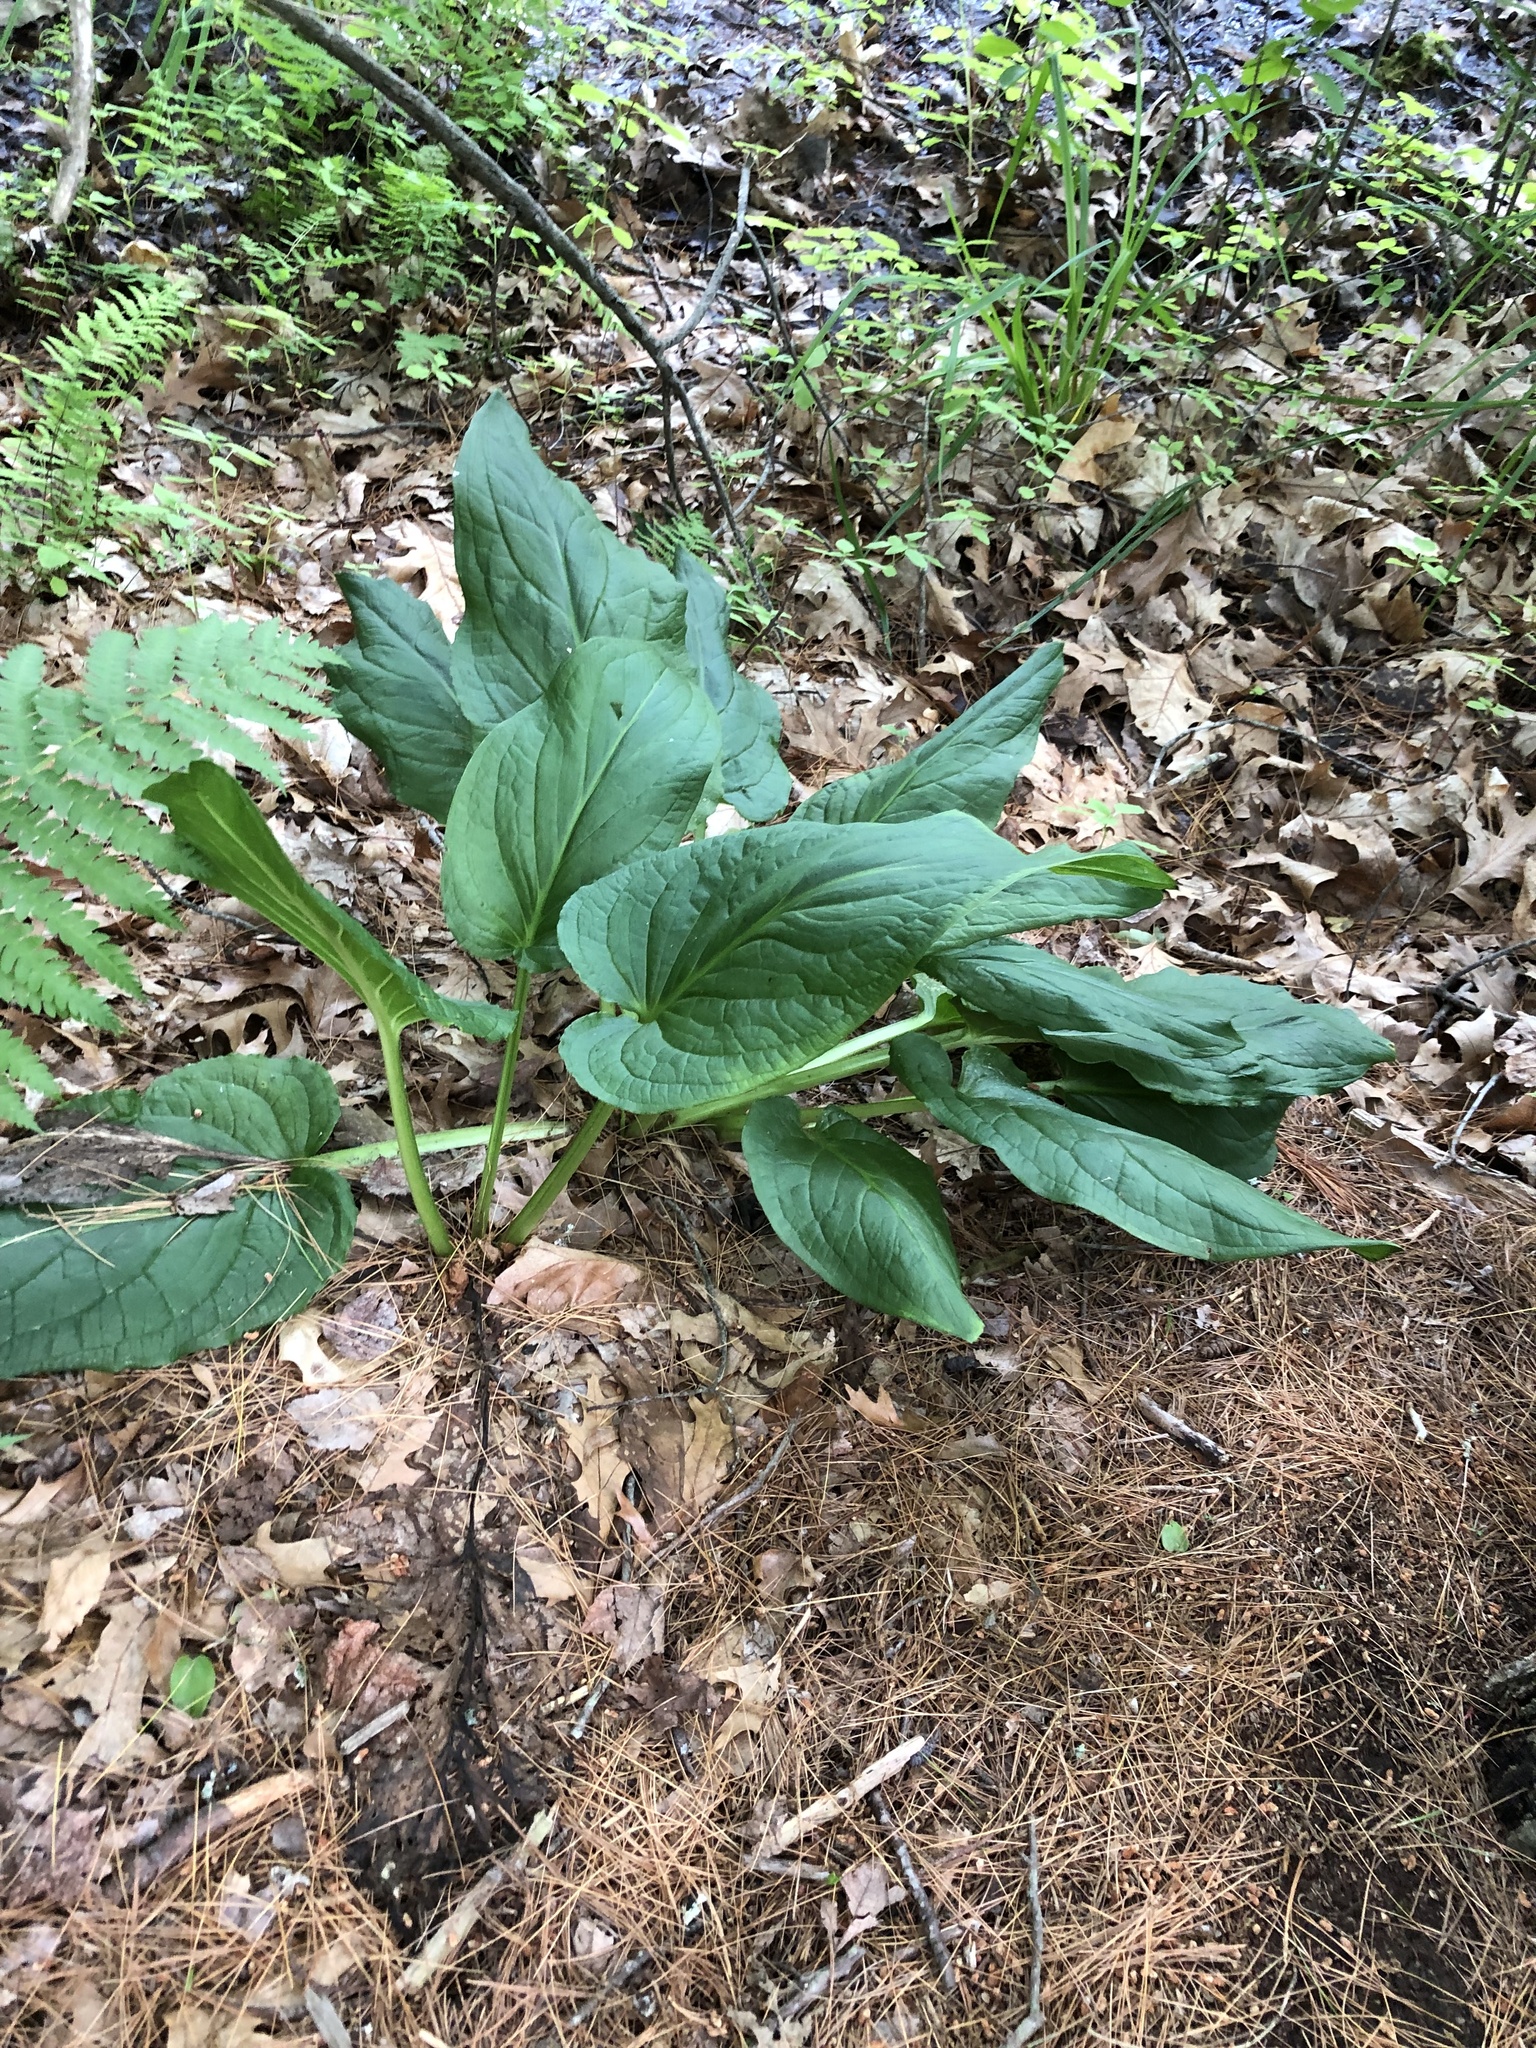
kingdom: Plantae
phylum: Tracheophyta
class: Liliopsida
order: Alismatales
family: Araceae
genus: Symplocarpus
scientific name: Symplocarpus foetidus
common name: Eastern skunk cabbage
